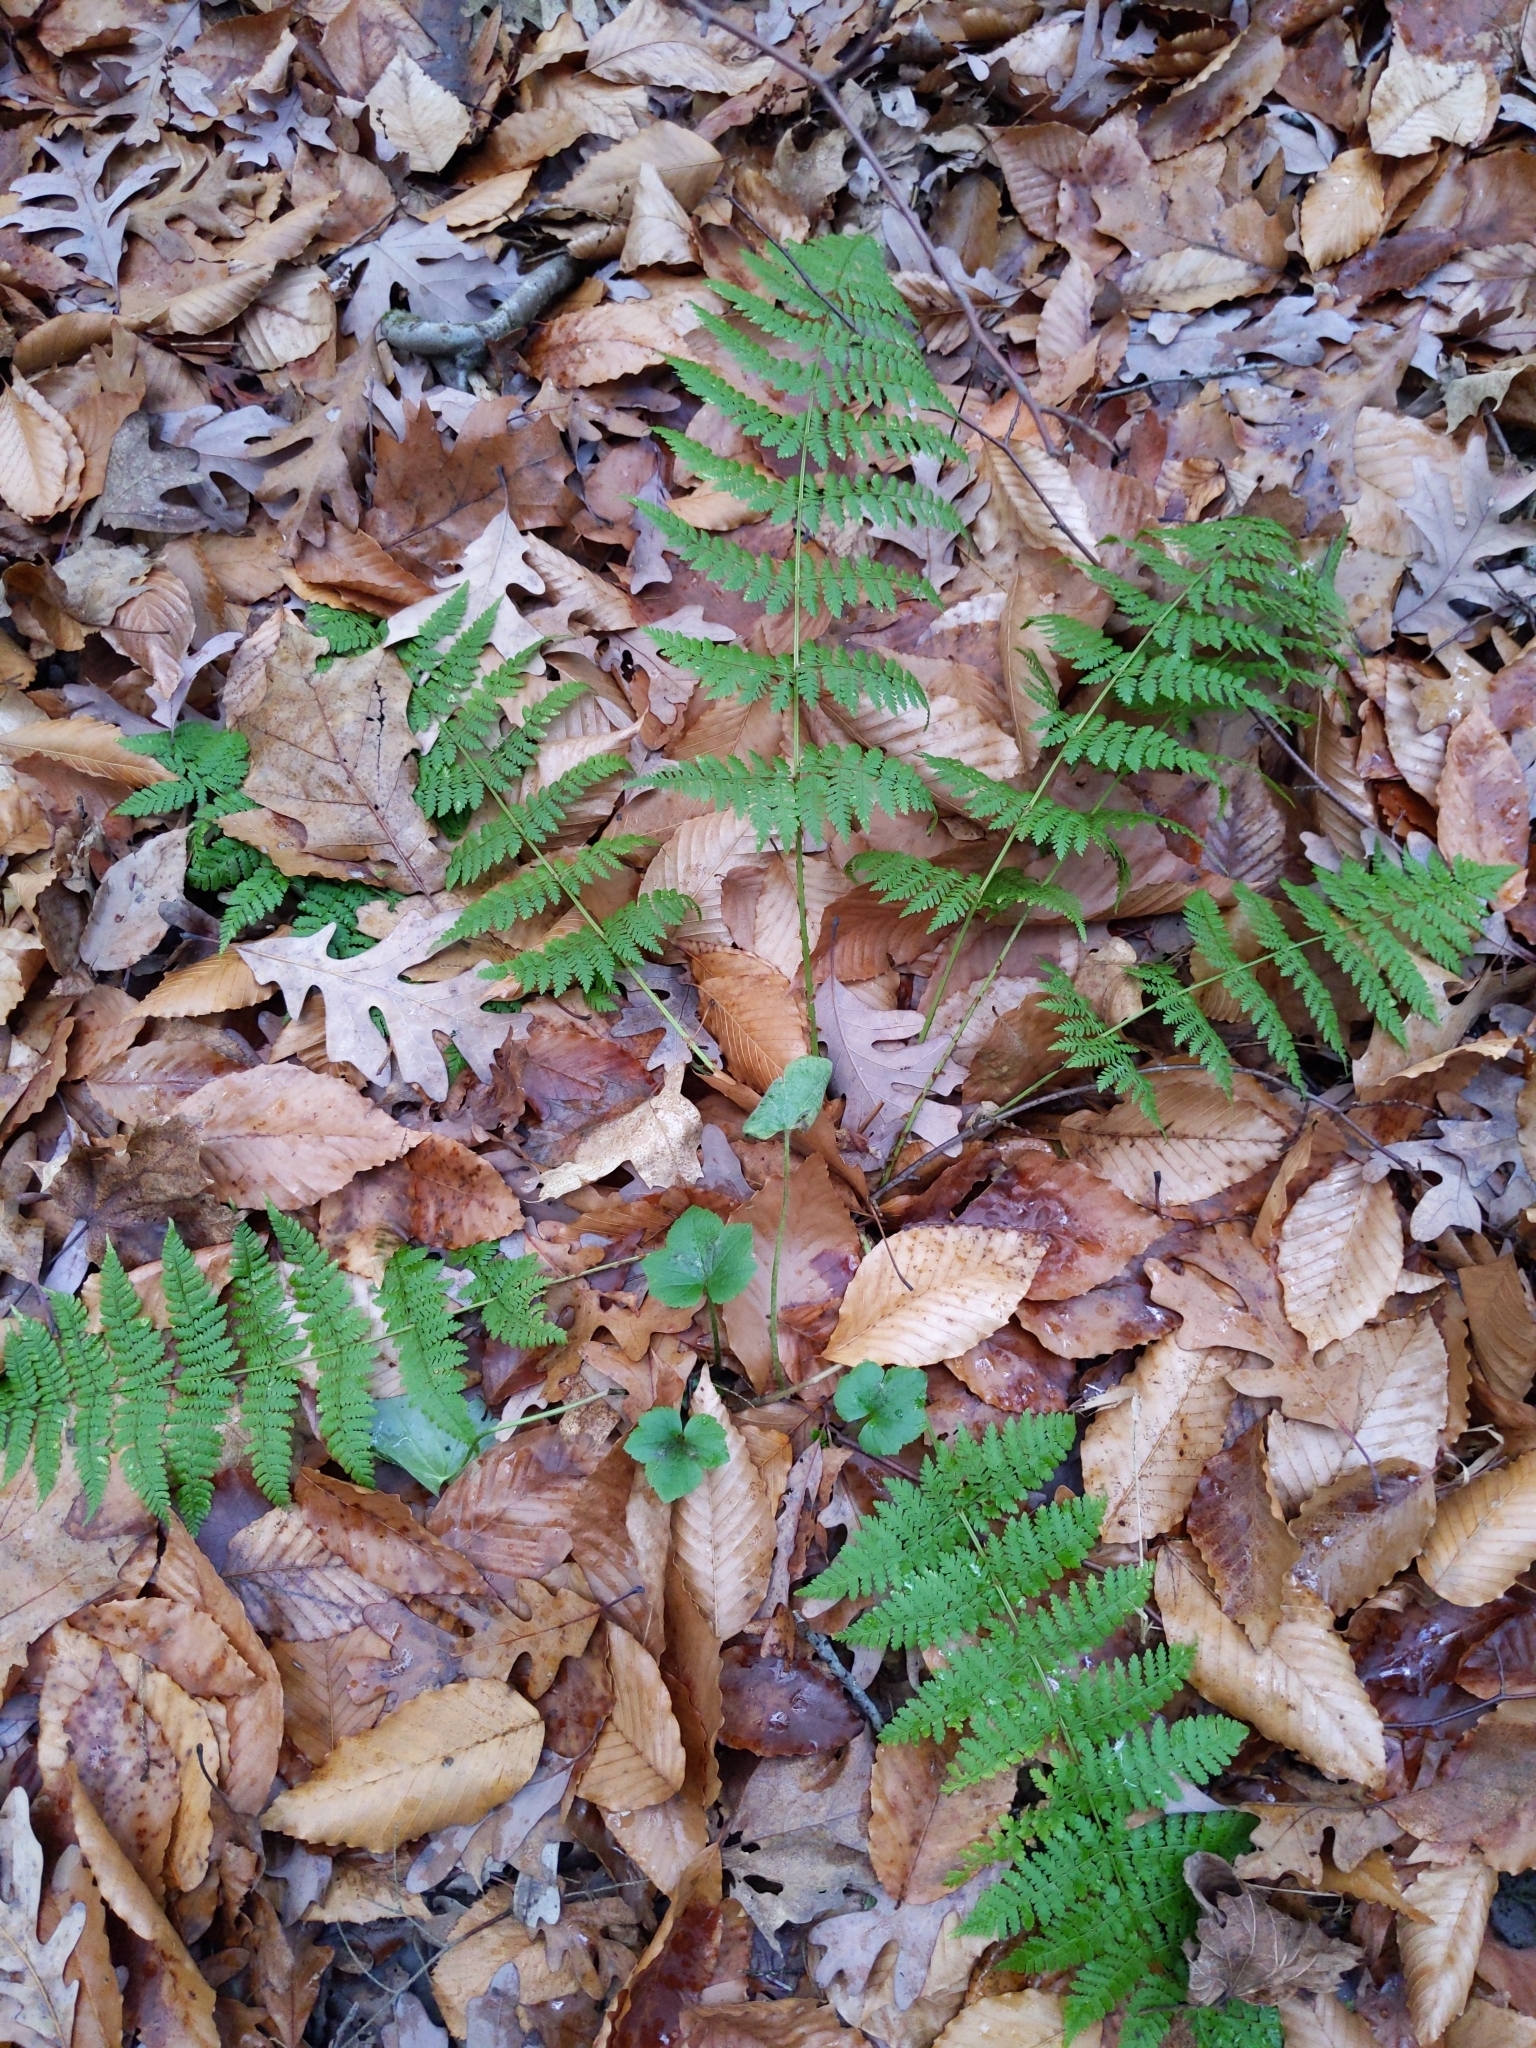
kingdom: Plantae
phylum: Tracheophyta
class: Polypodiopsida
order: Polypodiales
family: Dryopteridaceae
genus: Dryopteris
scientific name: Dryopteris intermedia
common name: Evergreen wood fern
